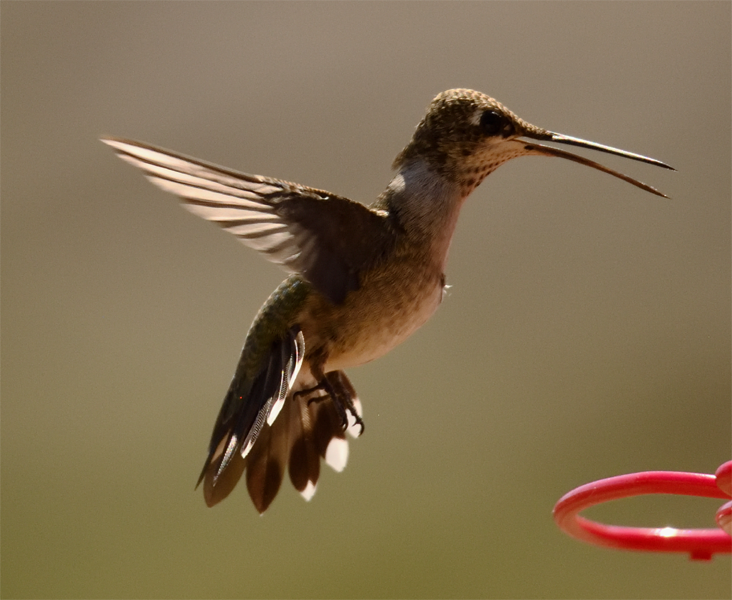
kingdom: Animalia
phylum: Chordata
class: Aves
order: Apodiformes
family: Trochilidae
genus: Archilochus
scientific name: Archilochus alexandri
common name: Black-chinned hummingbird
